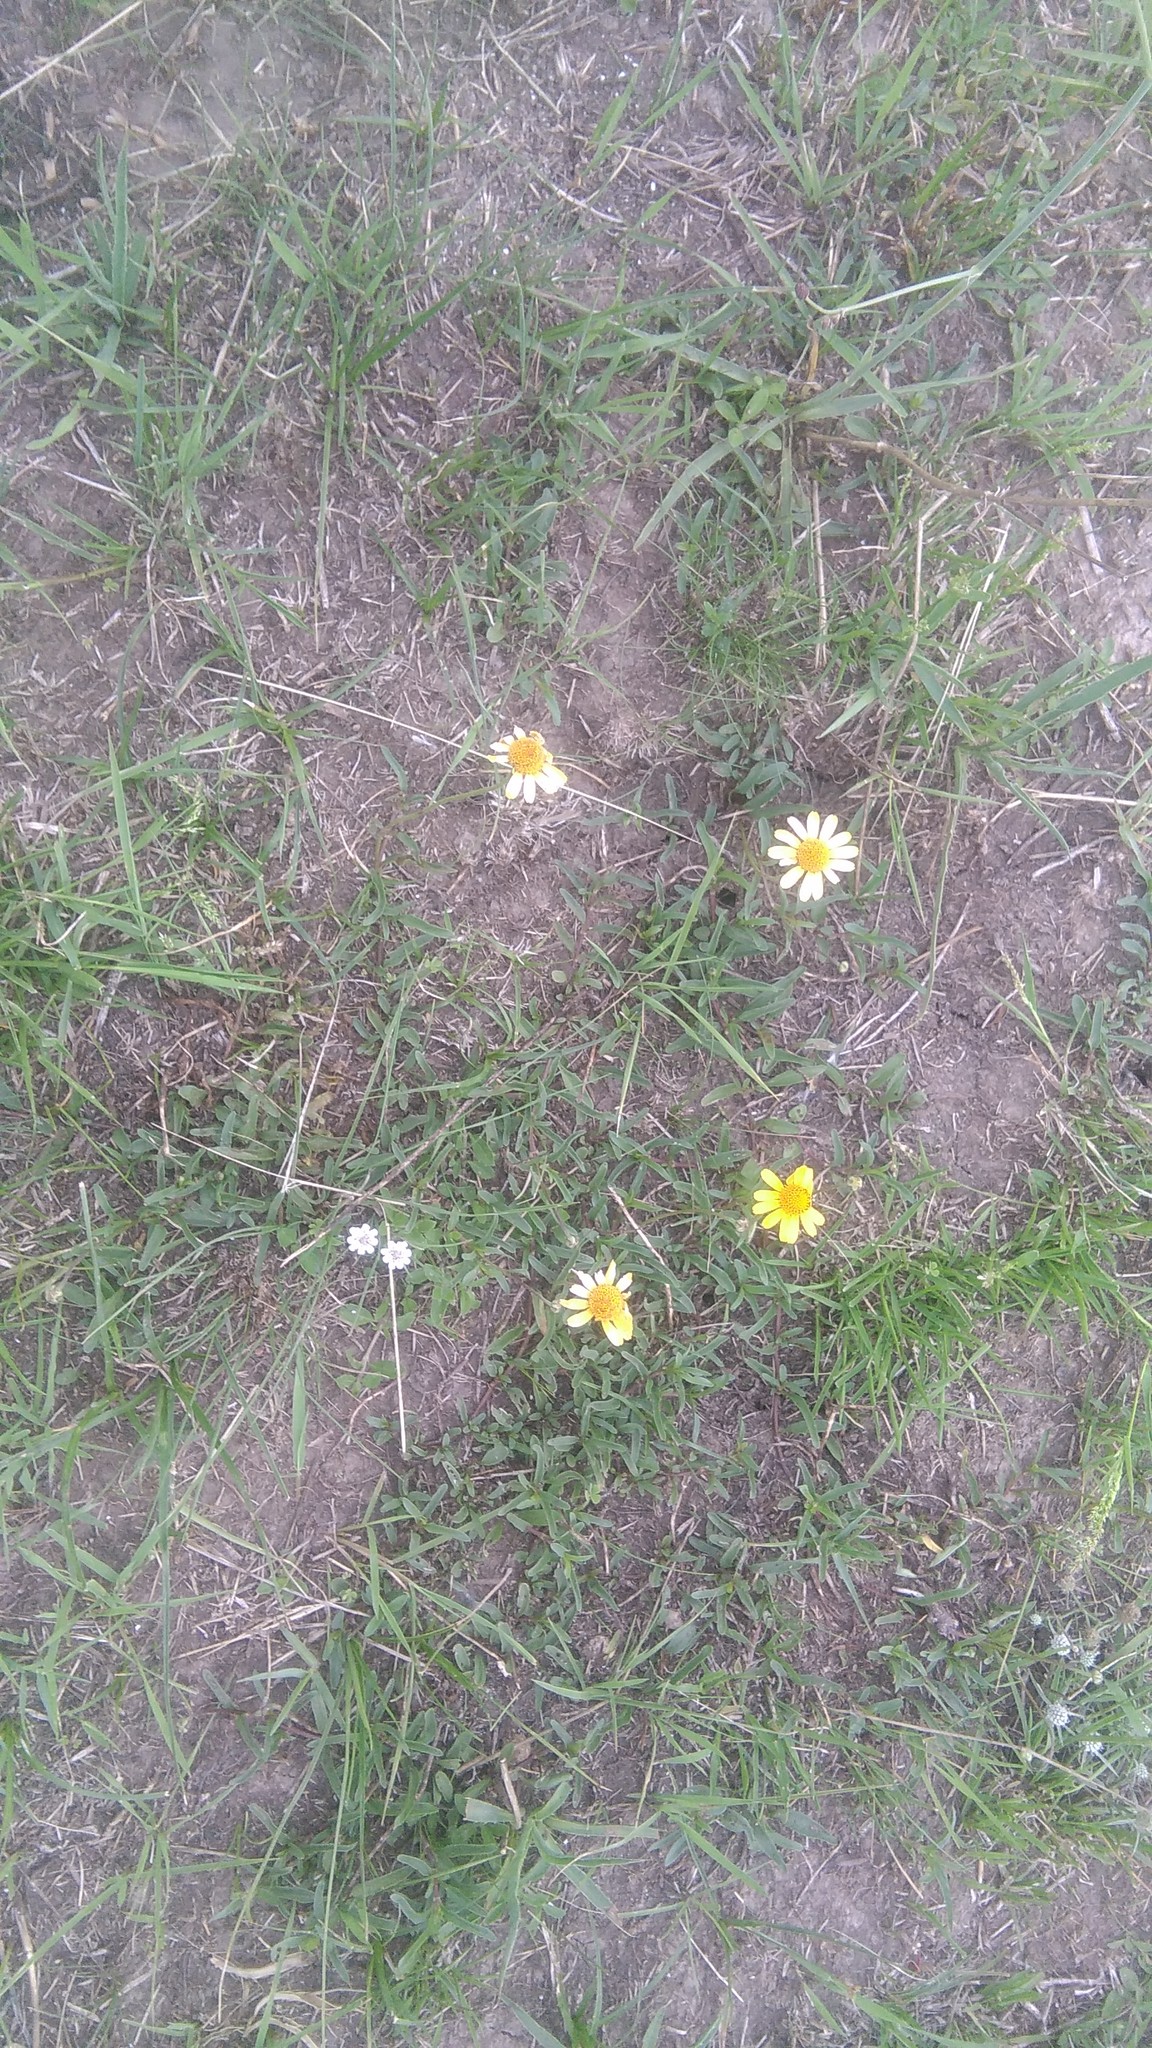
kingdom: Plantae
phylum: Tracheophyta
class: Magnoliopsida
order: Asterales
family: Asteraceae
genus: Acmella
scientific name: Acmella decumbens
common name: Creeping spotflower
